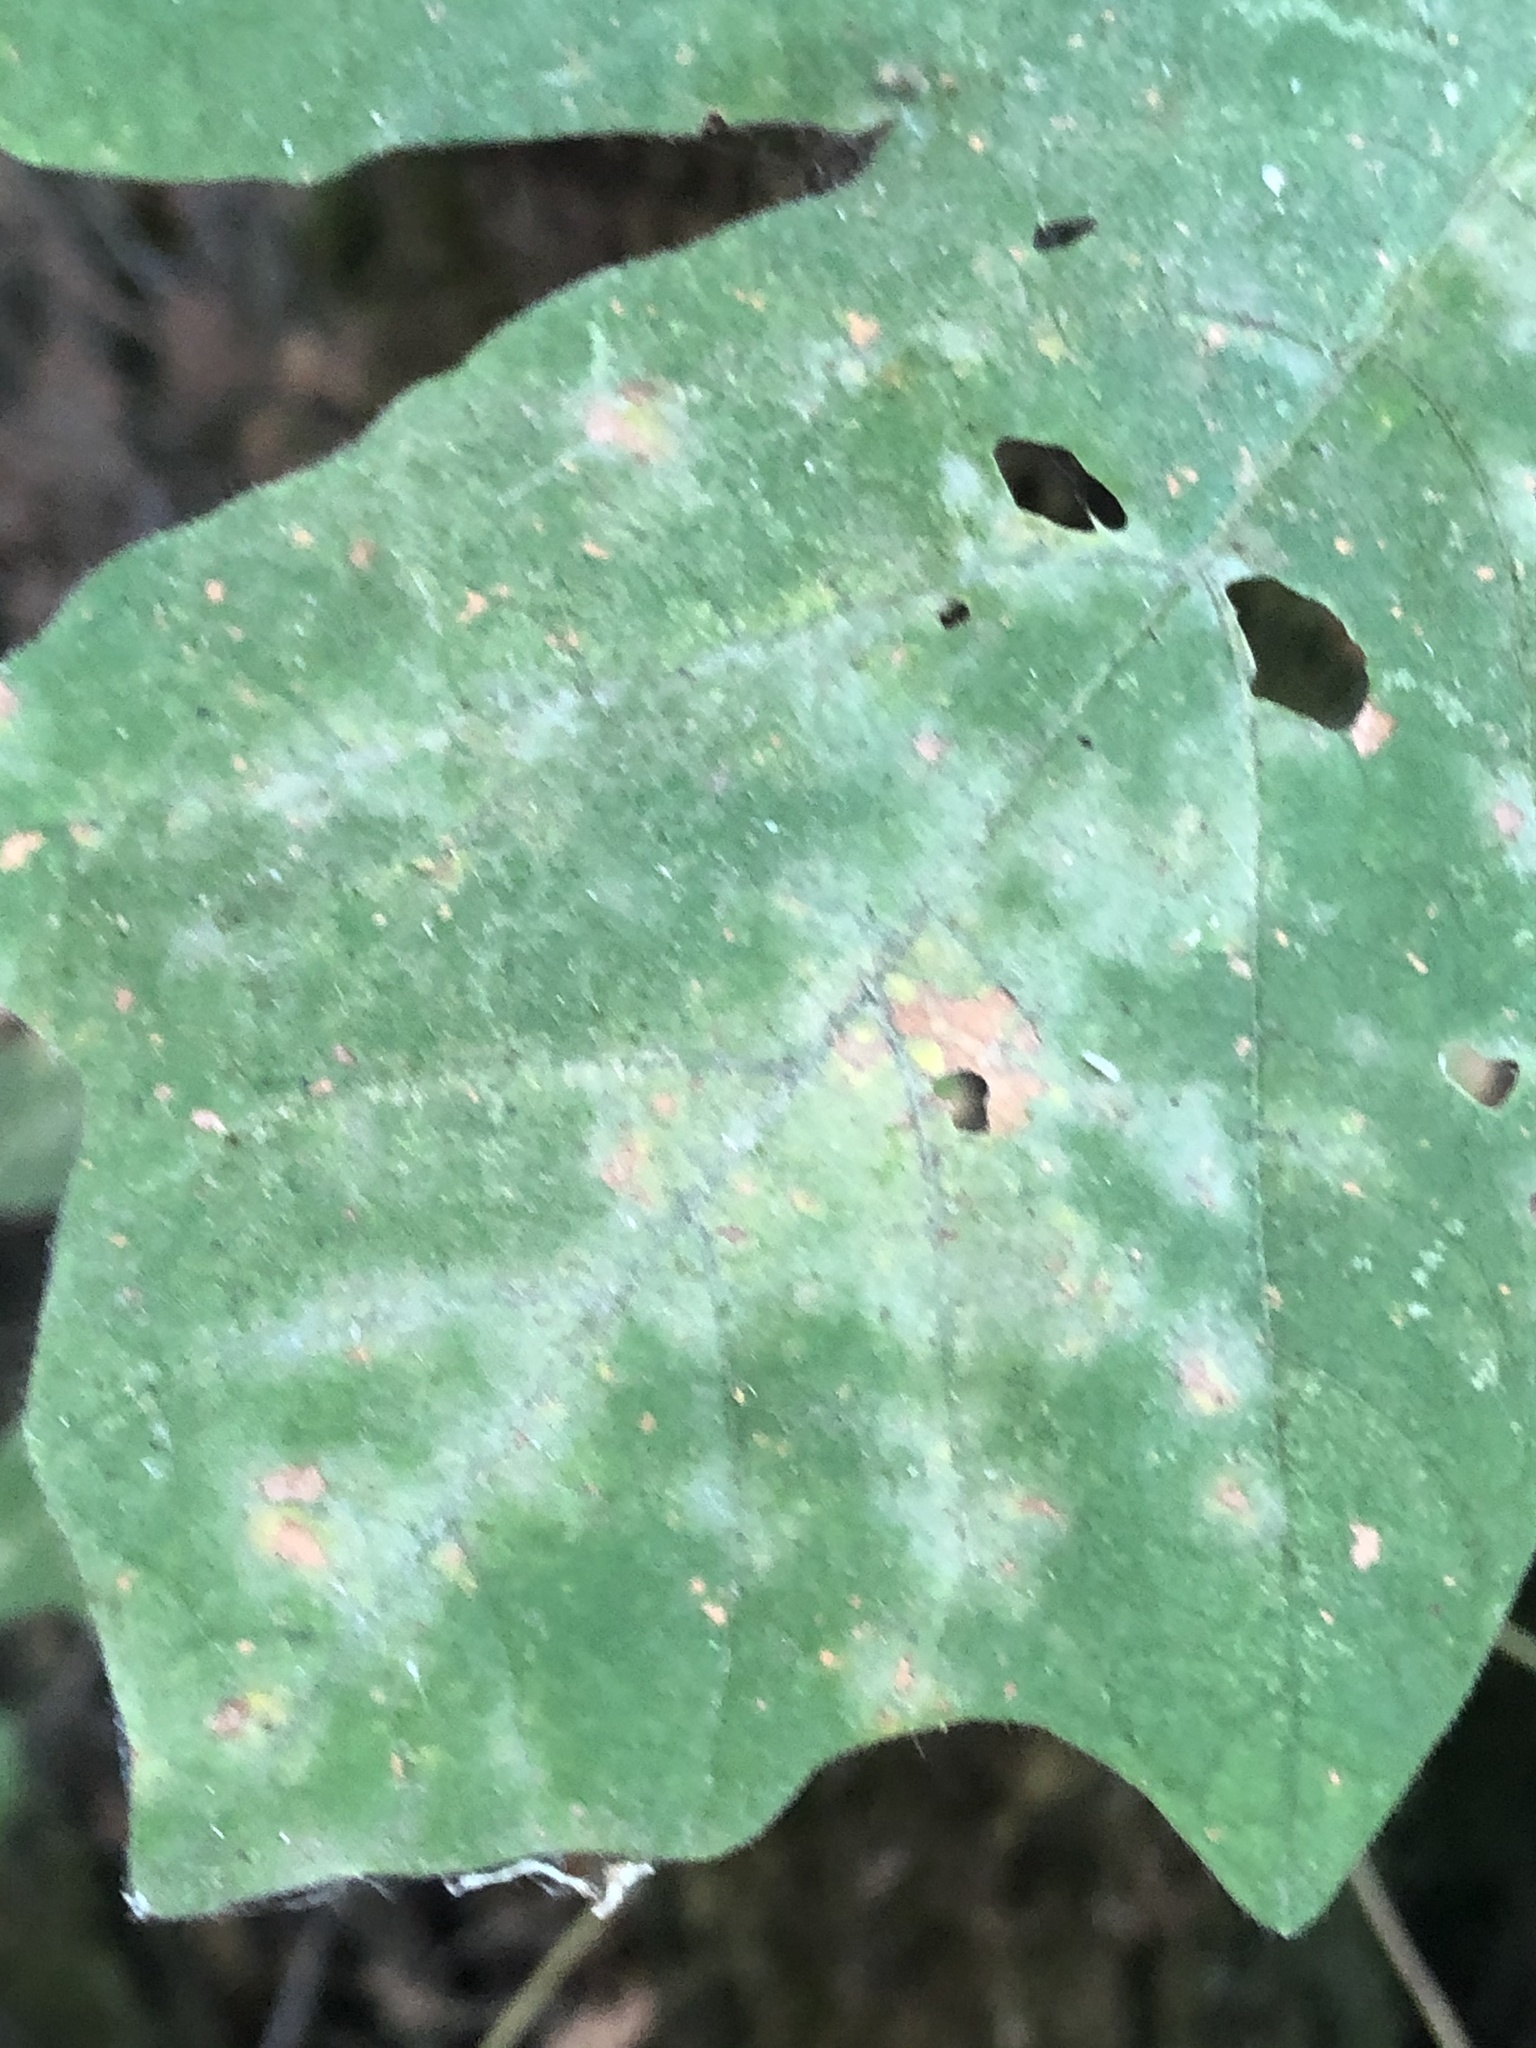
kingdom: Fungi
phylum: Ascomycota
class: Leotiomycetes
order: Helotiales
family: Erysiphaceae
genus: Sawadaea
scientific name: Sawadaea bicornis
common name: Maple mildew
